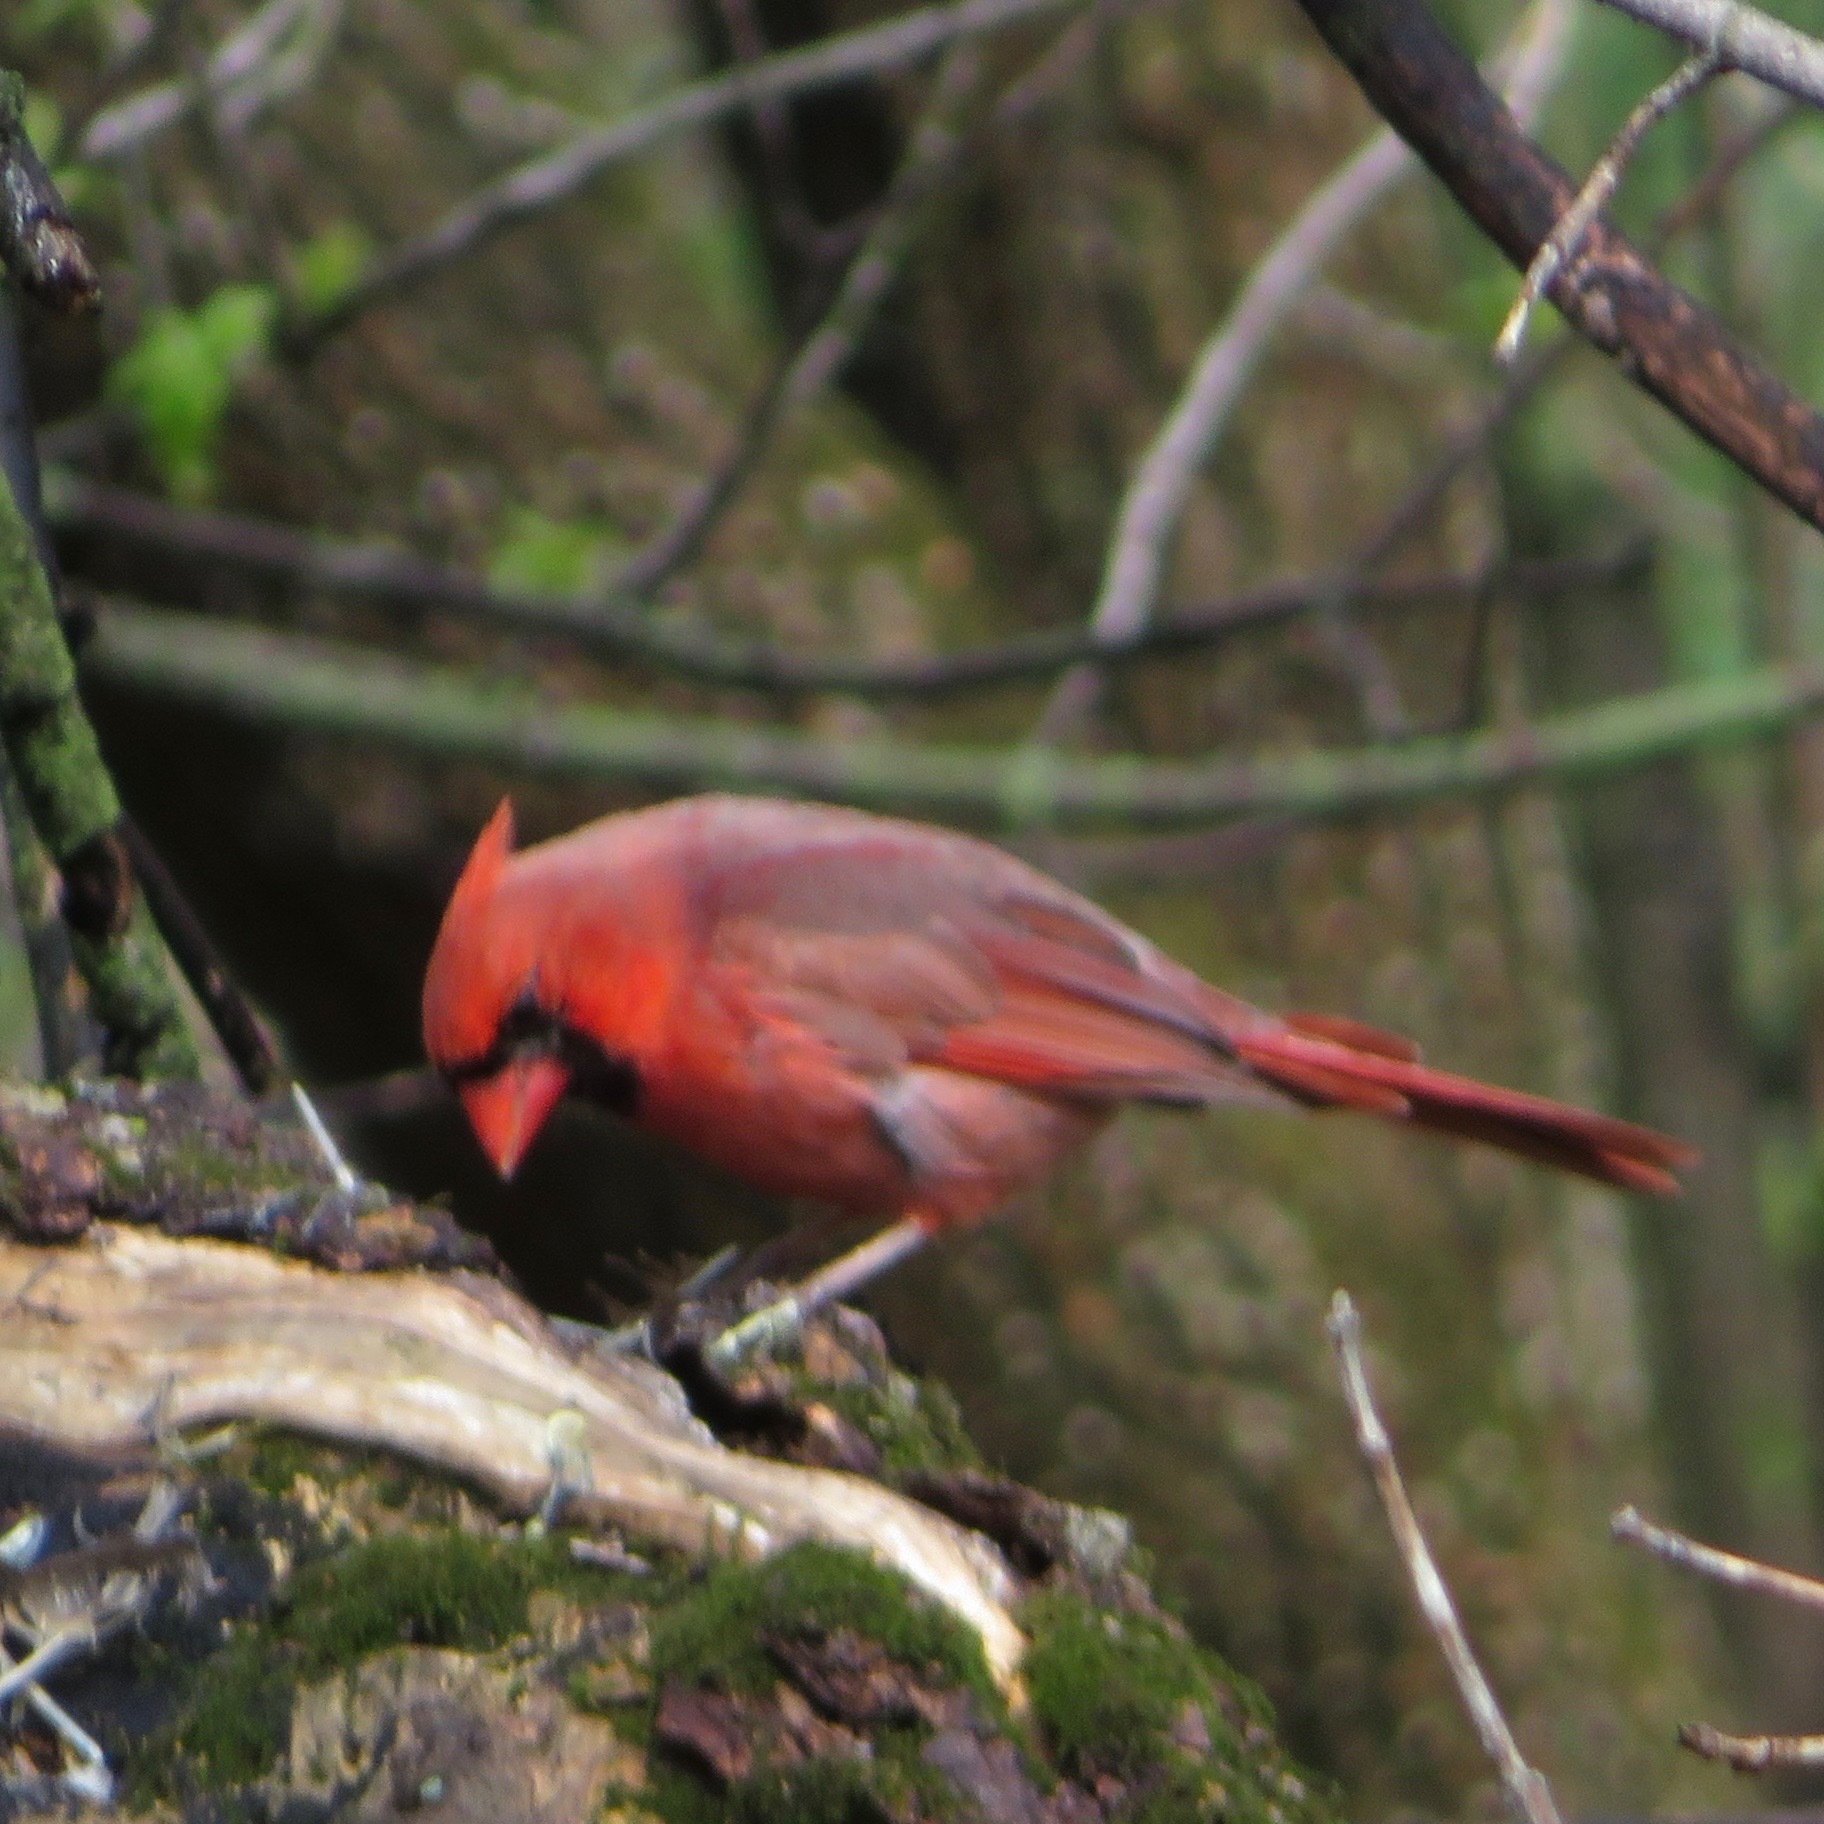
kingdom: Animalia
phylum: Chordata
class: Aves
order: Passeriformes
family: Cardinalidae
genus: Cardinalis
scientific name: Cardinalis cardinalis
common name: Northern cardinal
